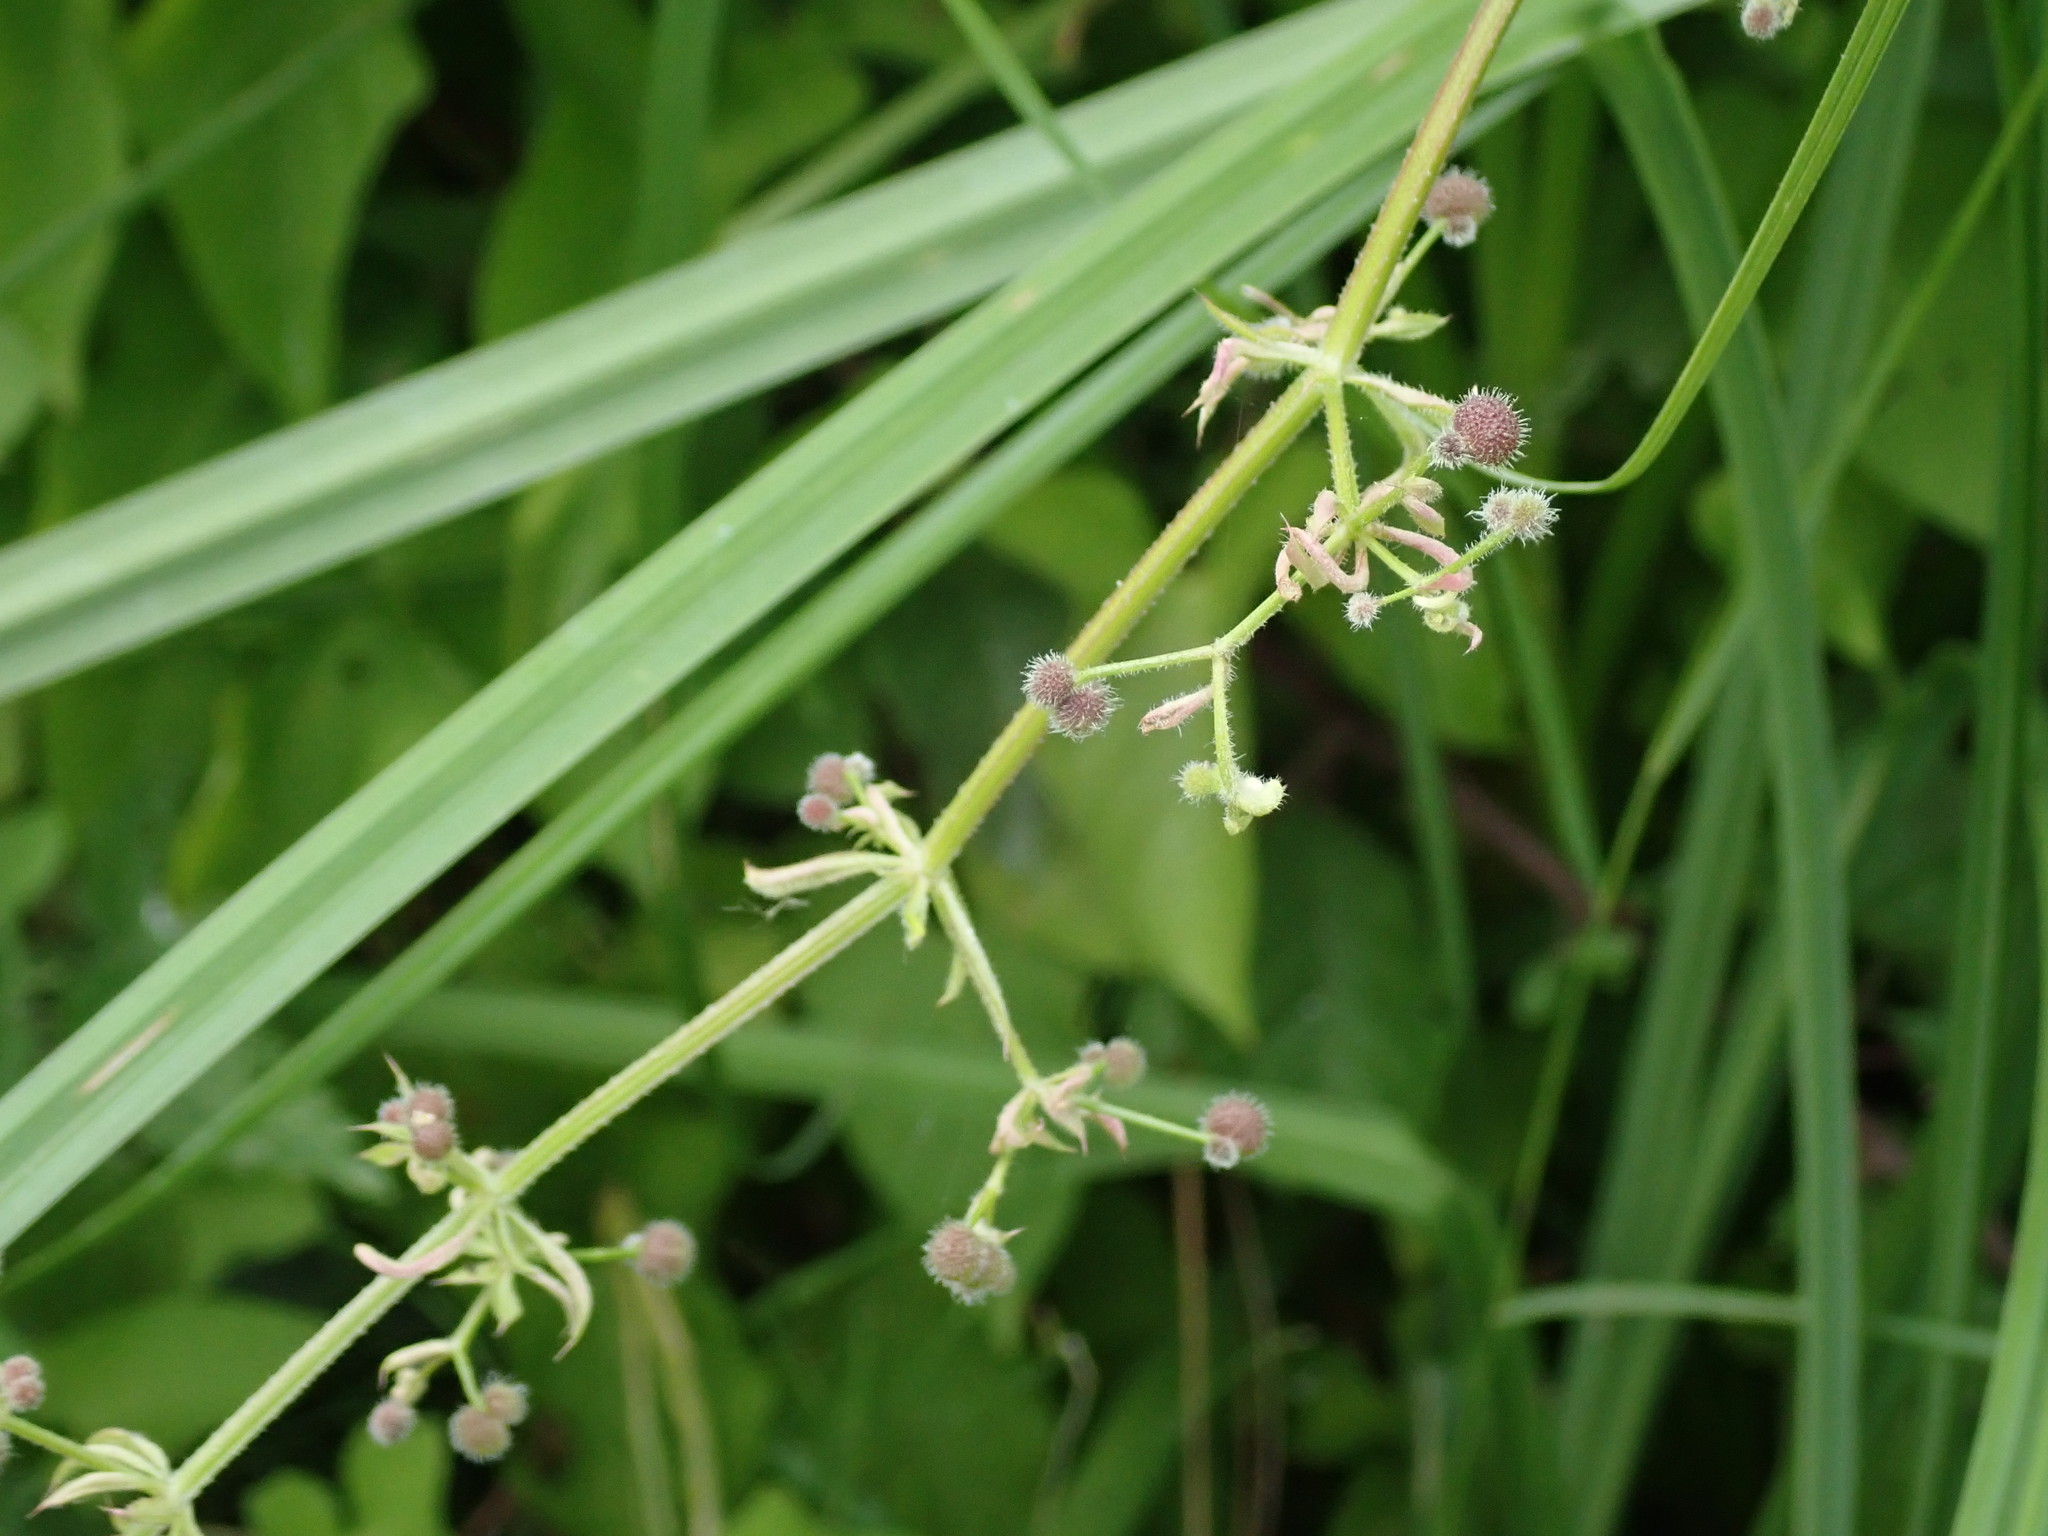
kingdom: Plantae
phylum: Tracheophyta
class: Magnoliopsida
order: Gentianales
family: Rubiaceae
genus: Galium
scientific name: Galium aparine
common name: Cleavers
